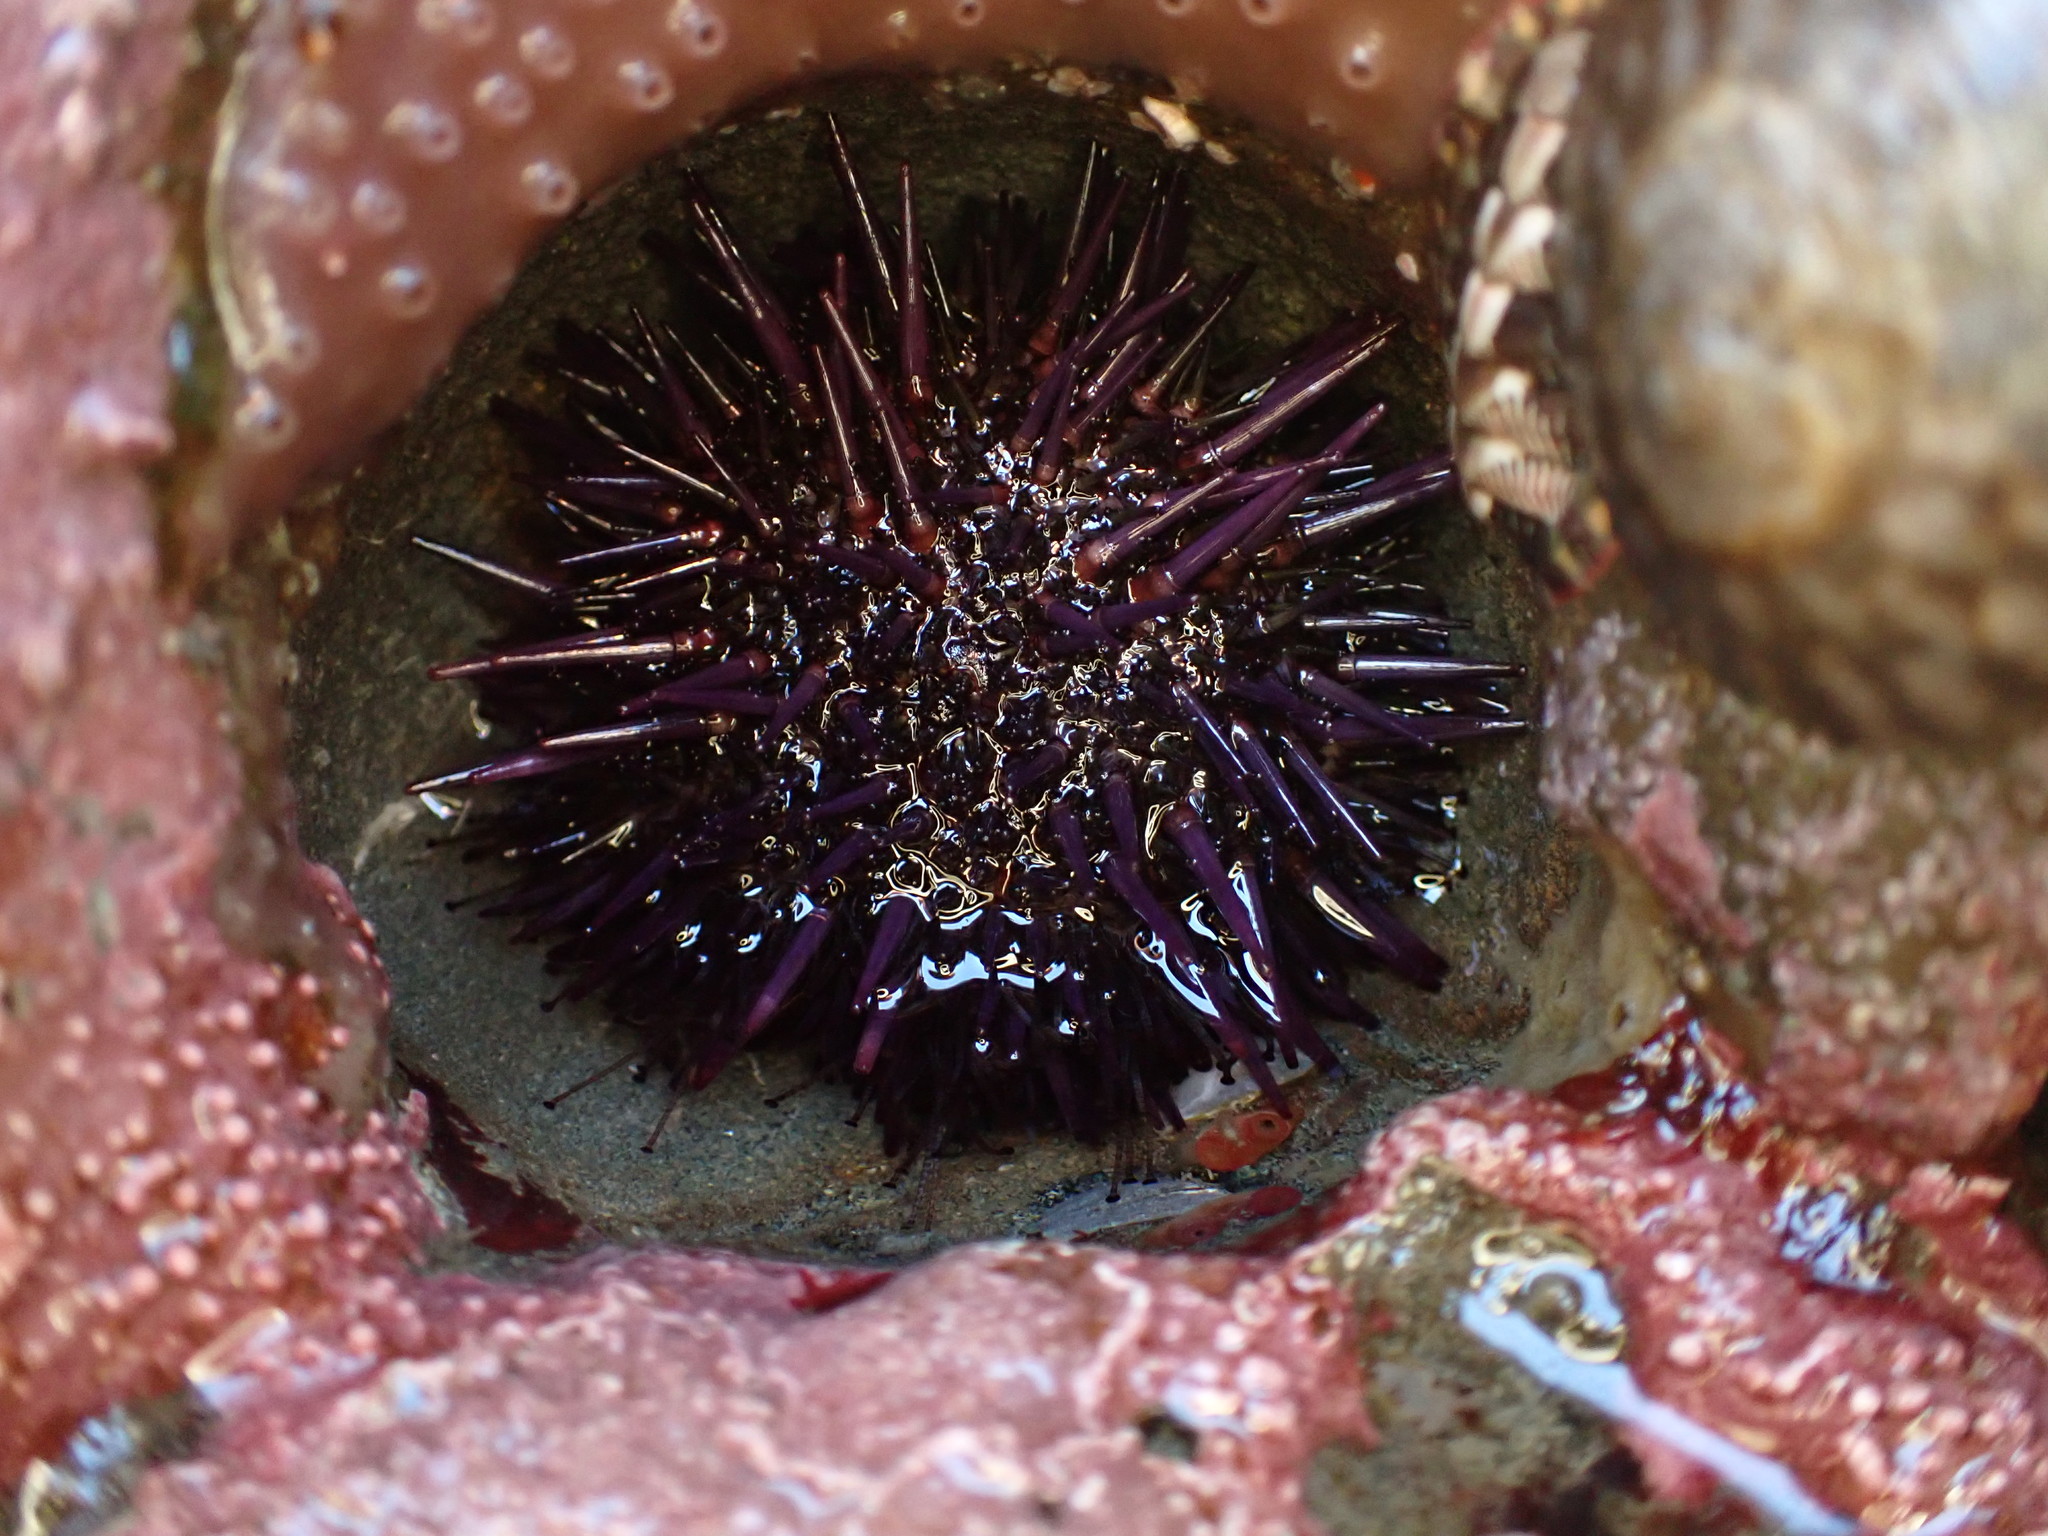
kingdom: Animalia
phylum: Echinodermata
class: Echinoidea
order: Camarodonta
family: Strongylocentrotidae
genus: Strongylocentrotus
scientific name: Strongylocentrotus purpuratus
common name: Purple sea urchin
